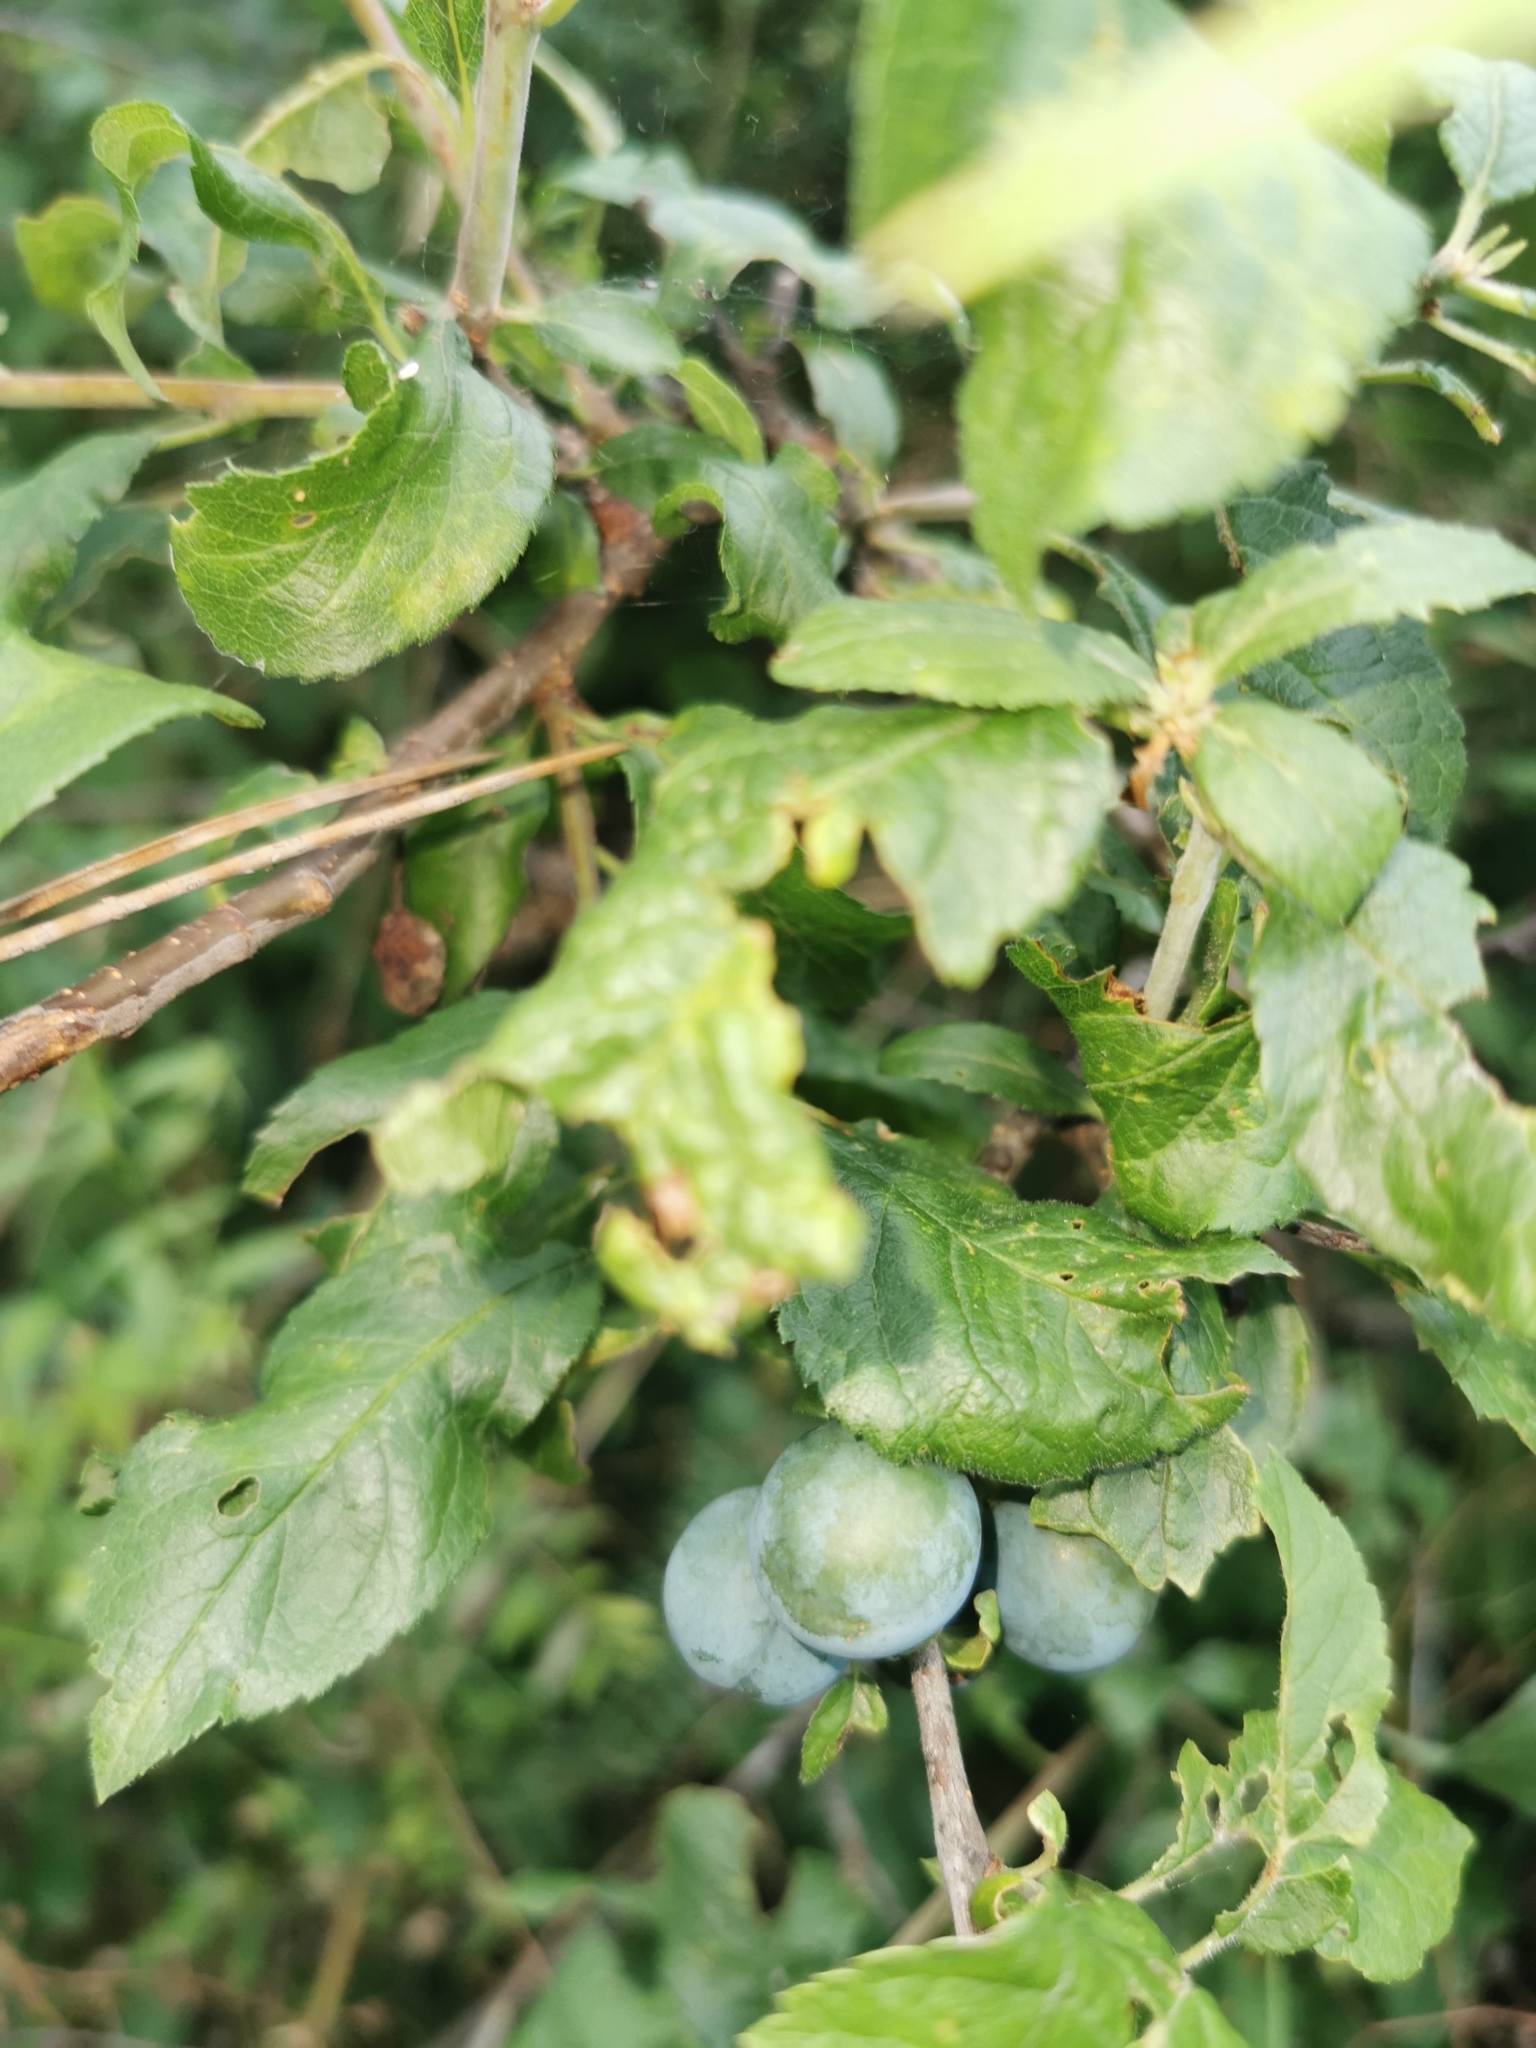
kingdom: Plantae
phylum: Tracheophyta
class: Magnoliopsida
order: Rosales
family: Rosaceae
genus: Prunus
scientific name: Prunus spinosa
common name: Blackthorn
